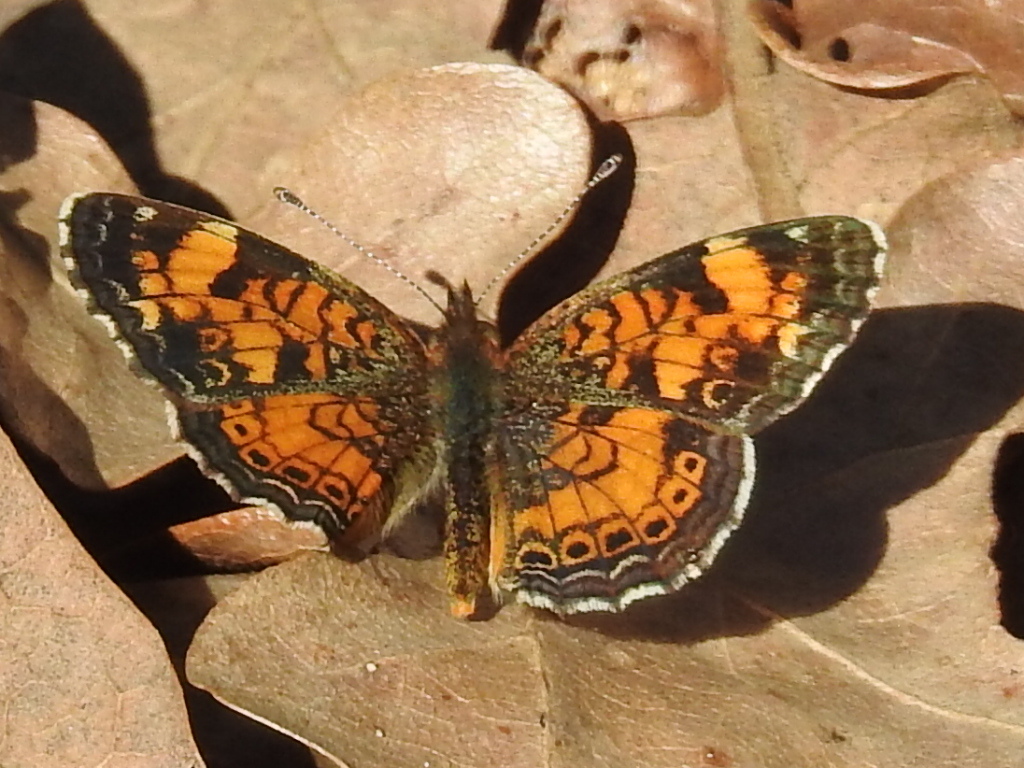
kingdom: Animalia
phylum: Arthropoda
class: Insecta
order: Lepidoptera
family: Nymphalidae
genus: Phyciodes
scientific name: Phyciodes tharos
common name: Pearl crescent
